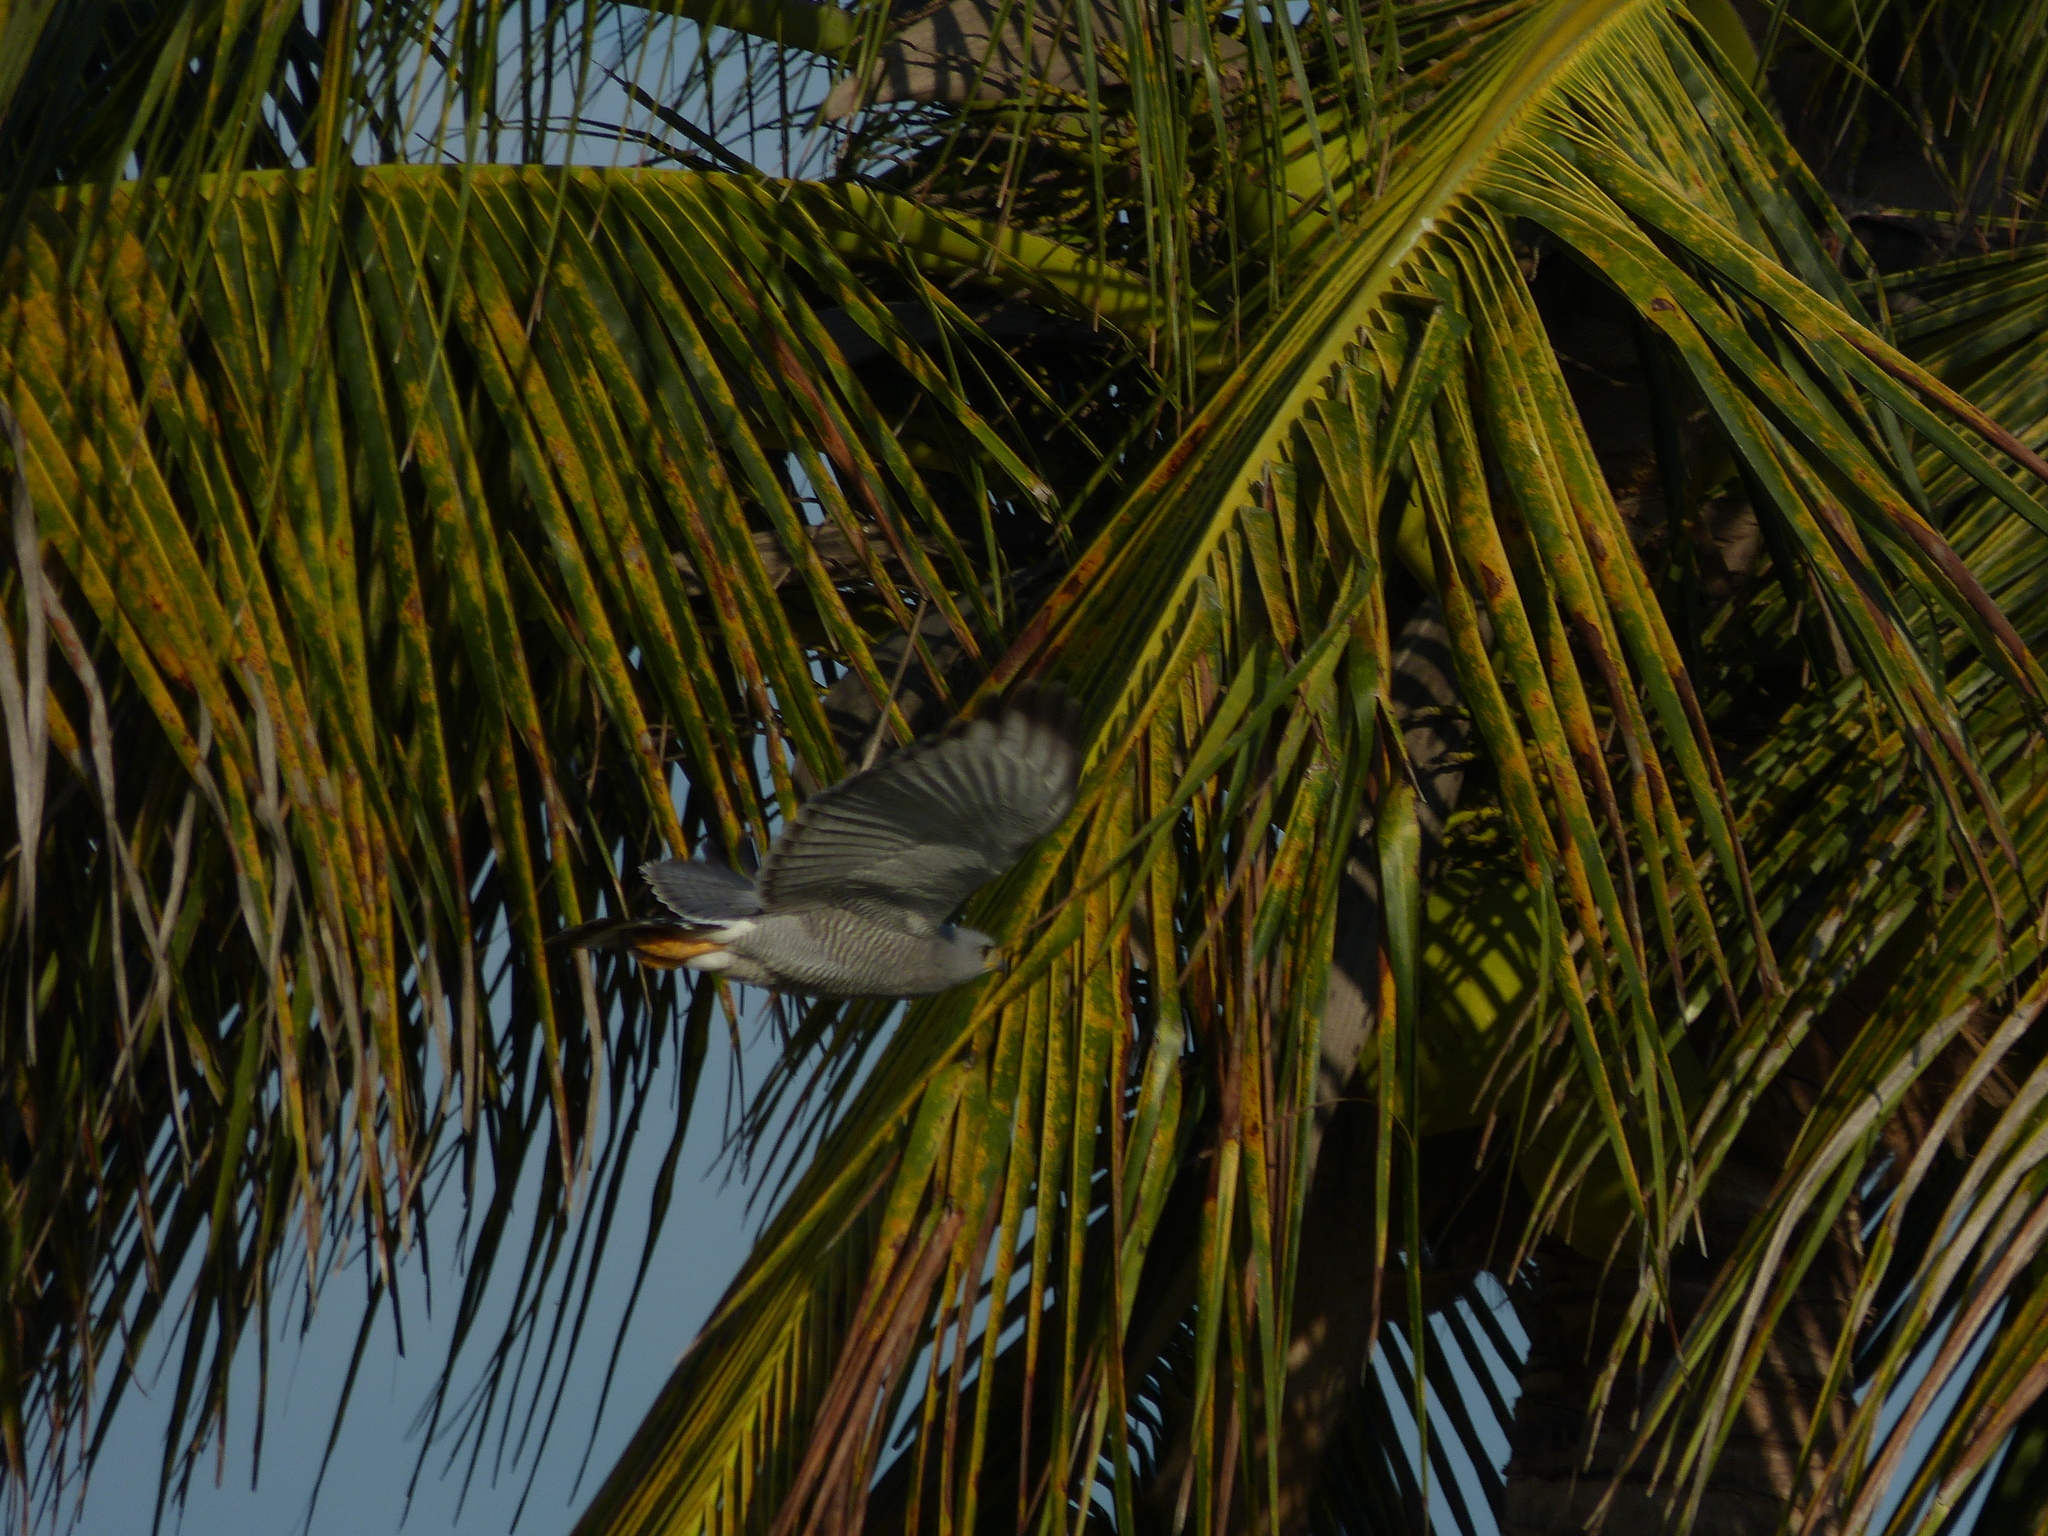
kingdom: Animalia
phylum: Chordata
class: Aves
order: Accipitriformes
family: Accipitridae
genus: Buteo
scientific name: Buteo nitidus
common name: Grey-lined hawk
